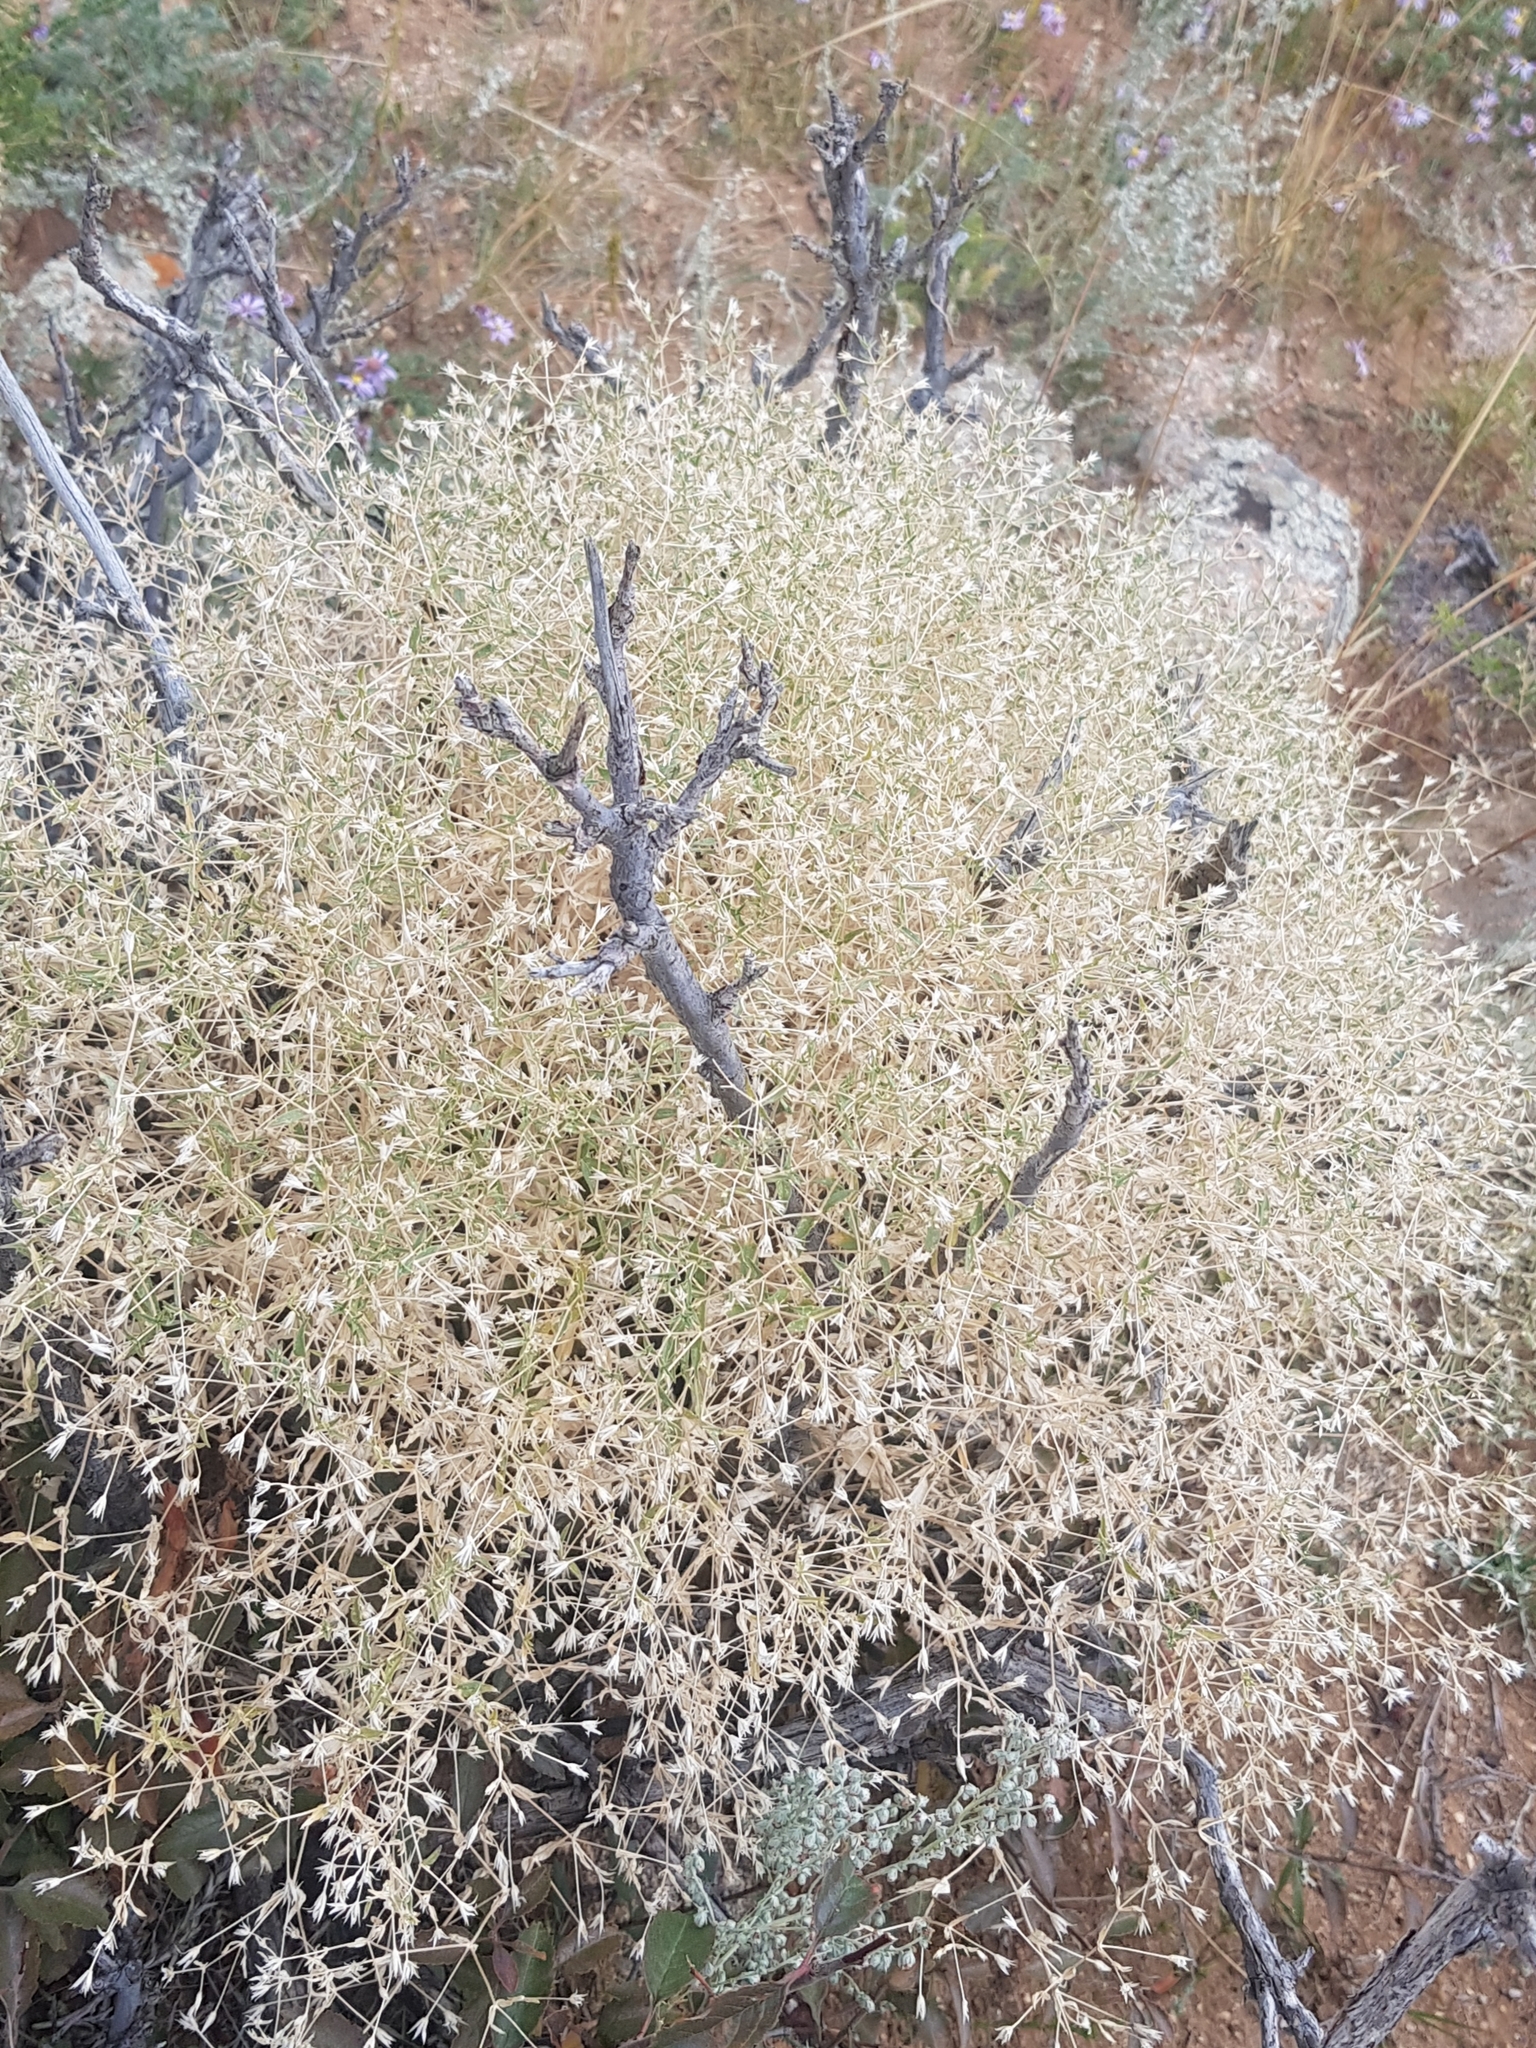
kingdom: Plantae
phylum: Tracheophyta
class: Magnoliopsida
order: Caryophyllales
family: Caryophyllaceae
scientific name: Caryophyllaceae
